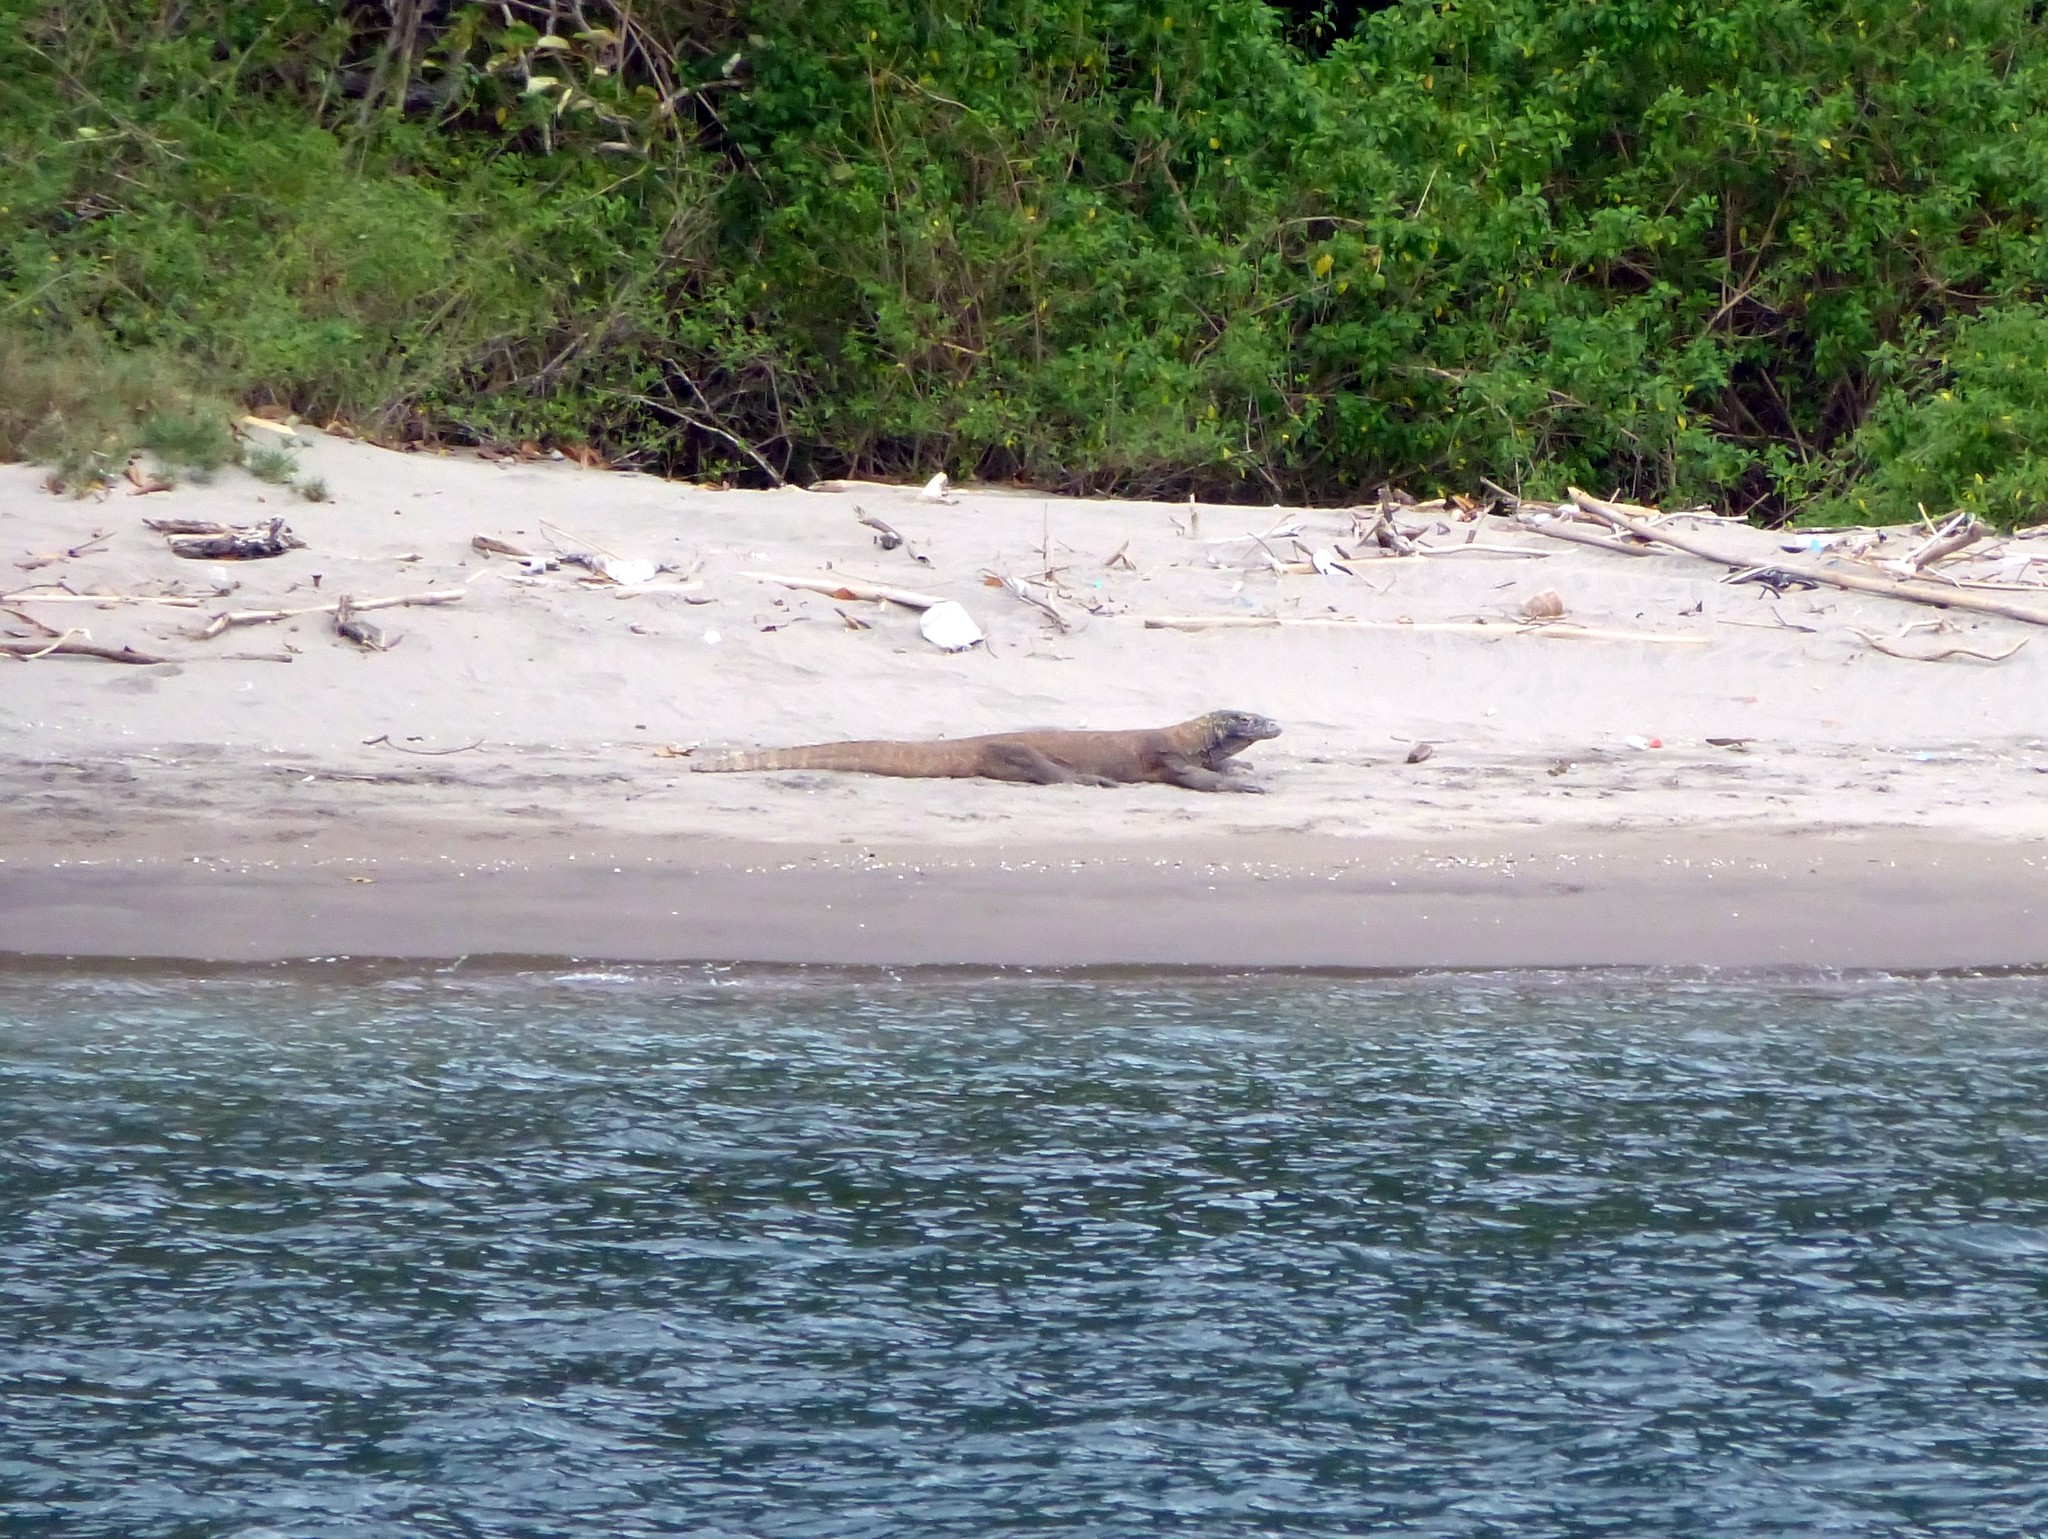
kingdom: Animalia
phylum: Chordata
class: Squamata
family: Varanidae
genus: Varanus
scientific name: Varanus komodoensis
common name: Komodo dragon
